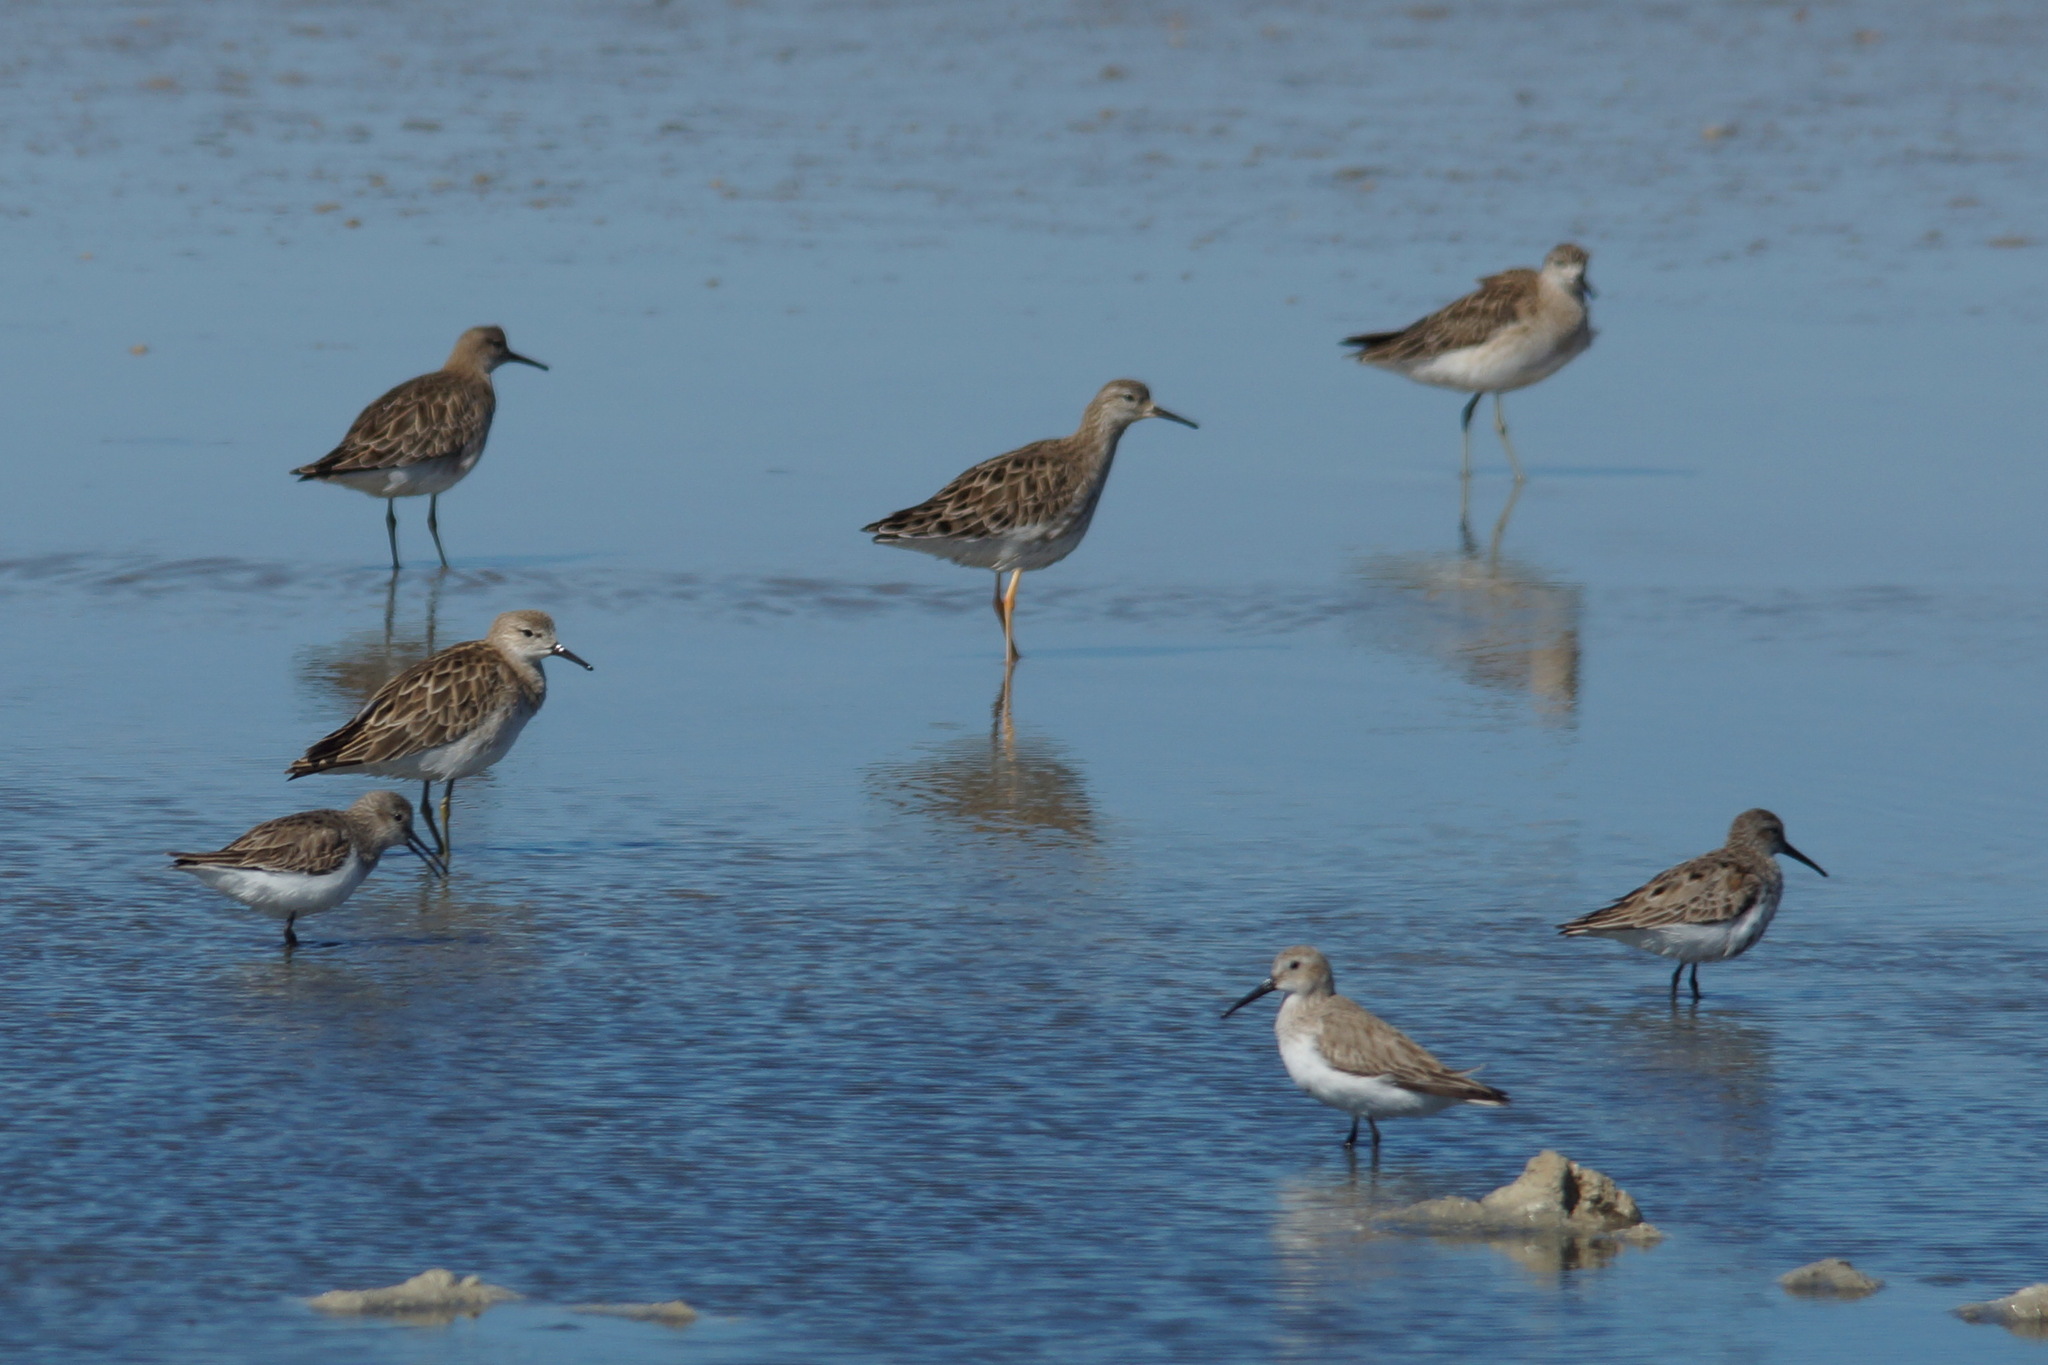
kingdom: Animalia
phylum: Chordata
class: Aves
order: Charadriiformes
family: Scolopacidae
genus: Calidris
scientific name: Calidris pugnax
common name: Ruff
